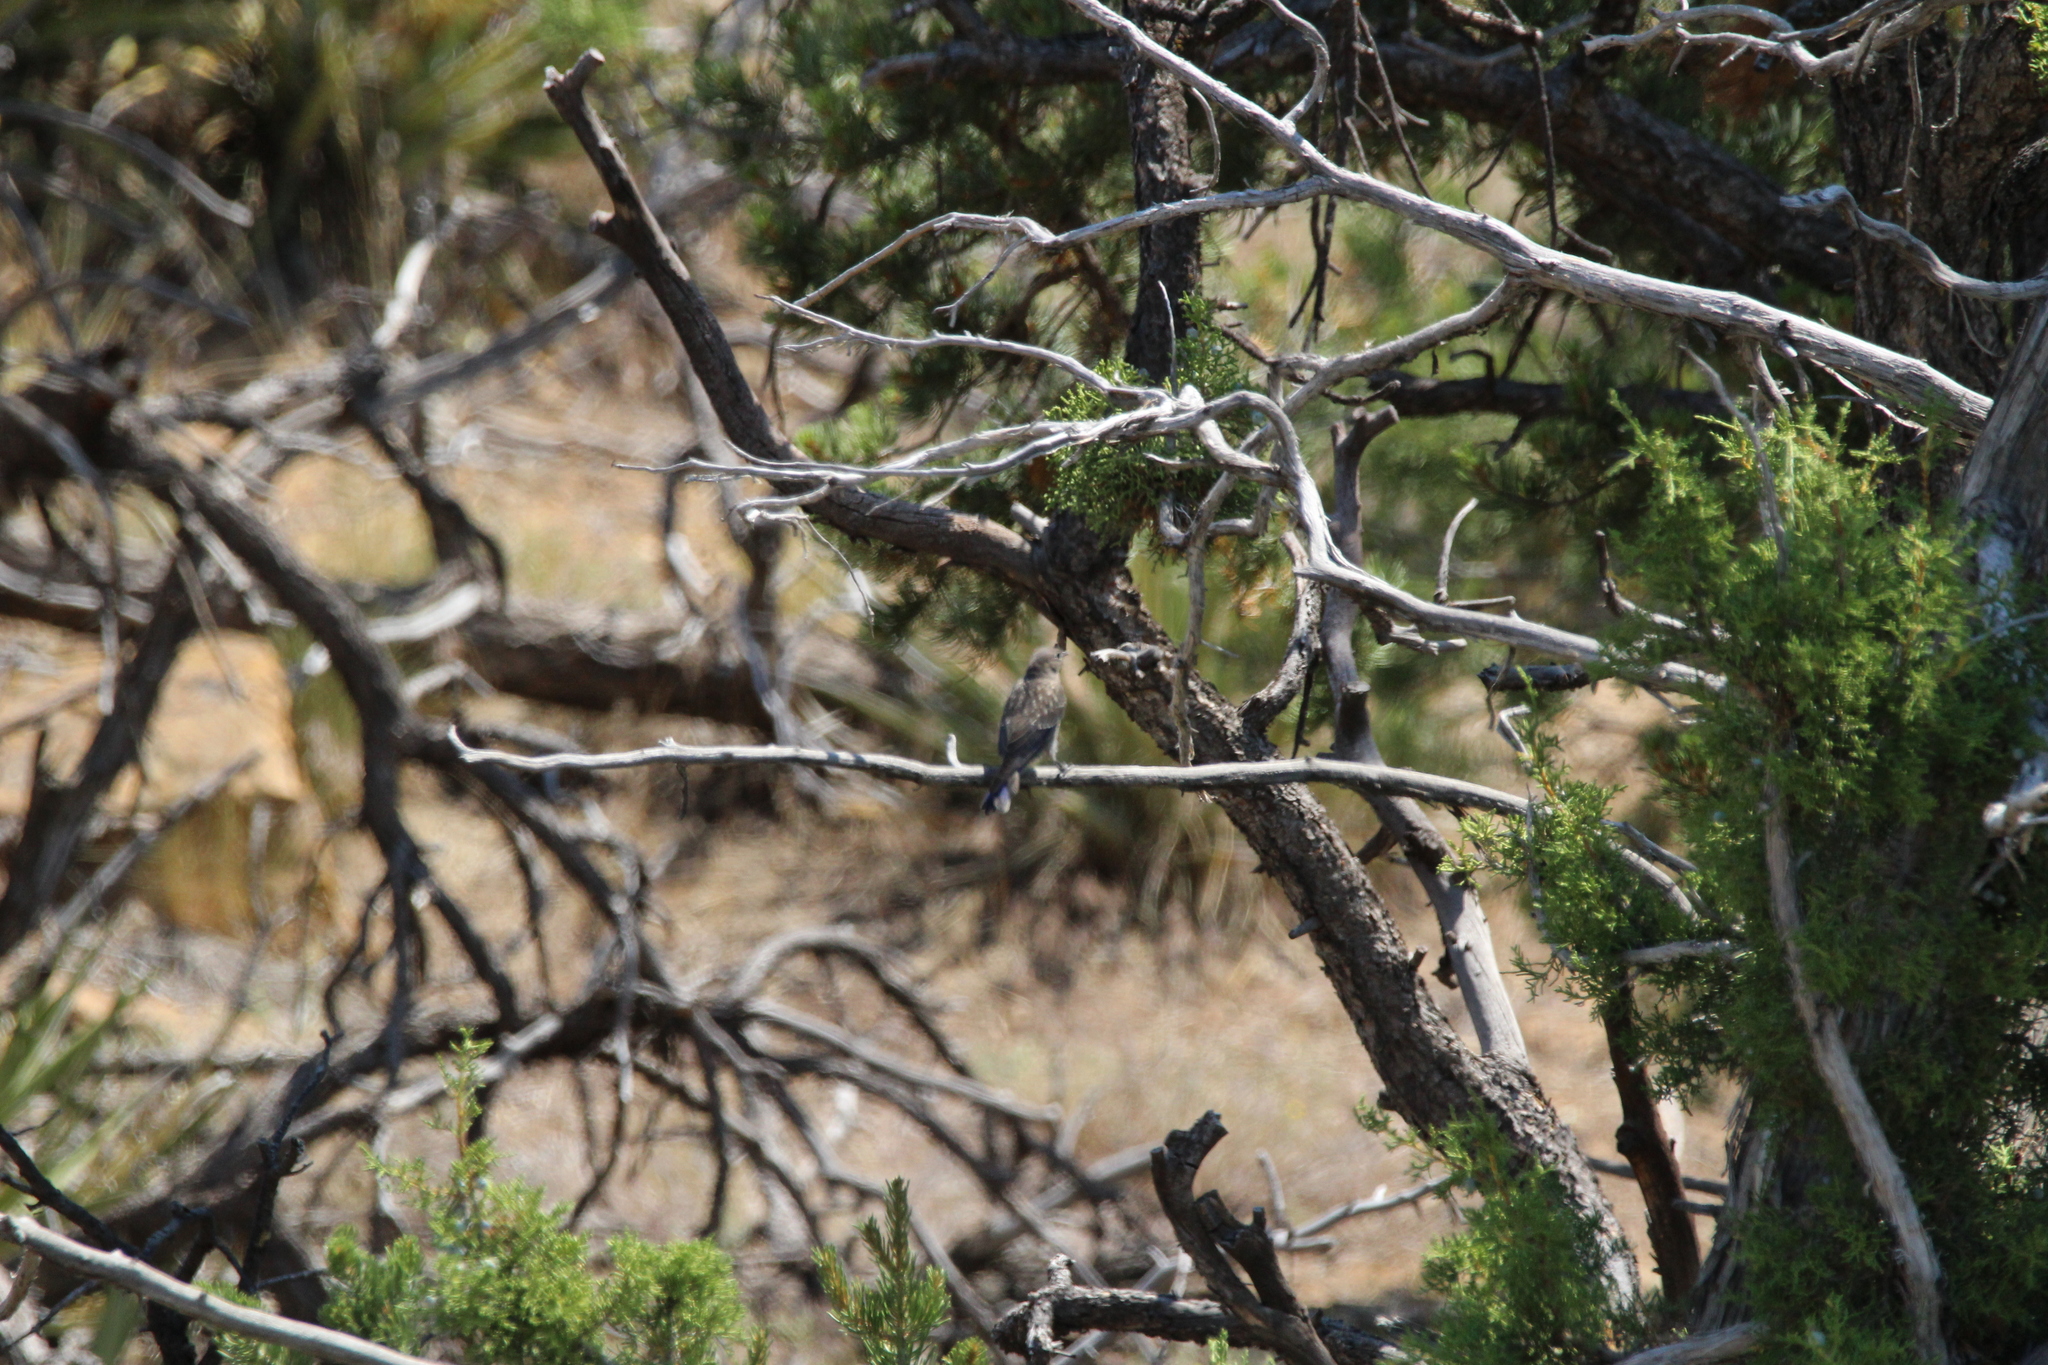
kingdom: Animalia
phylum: Chordata
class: Aves
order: Passeriformes
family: Turdidae
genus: Sialia
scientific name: Sialia mexicana
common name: Western bluebird
